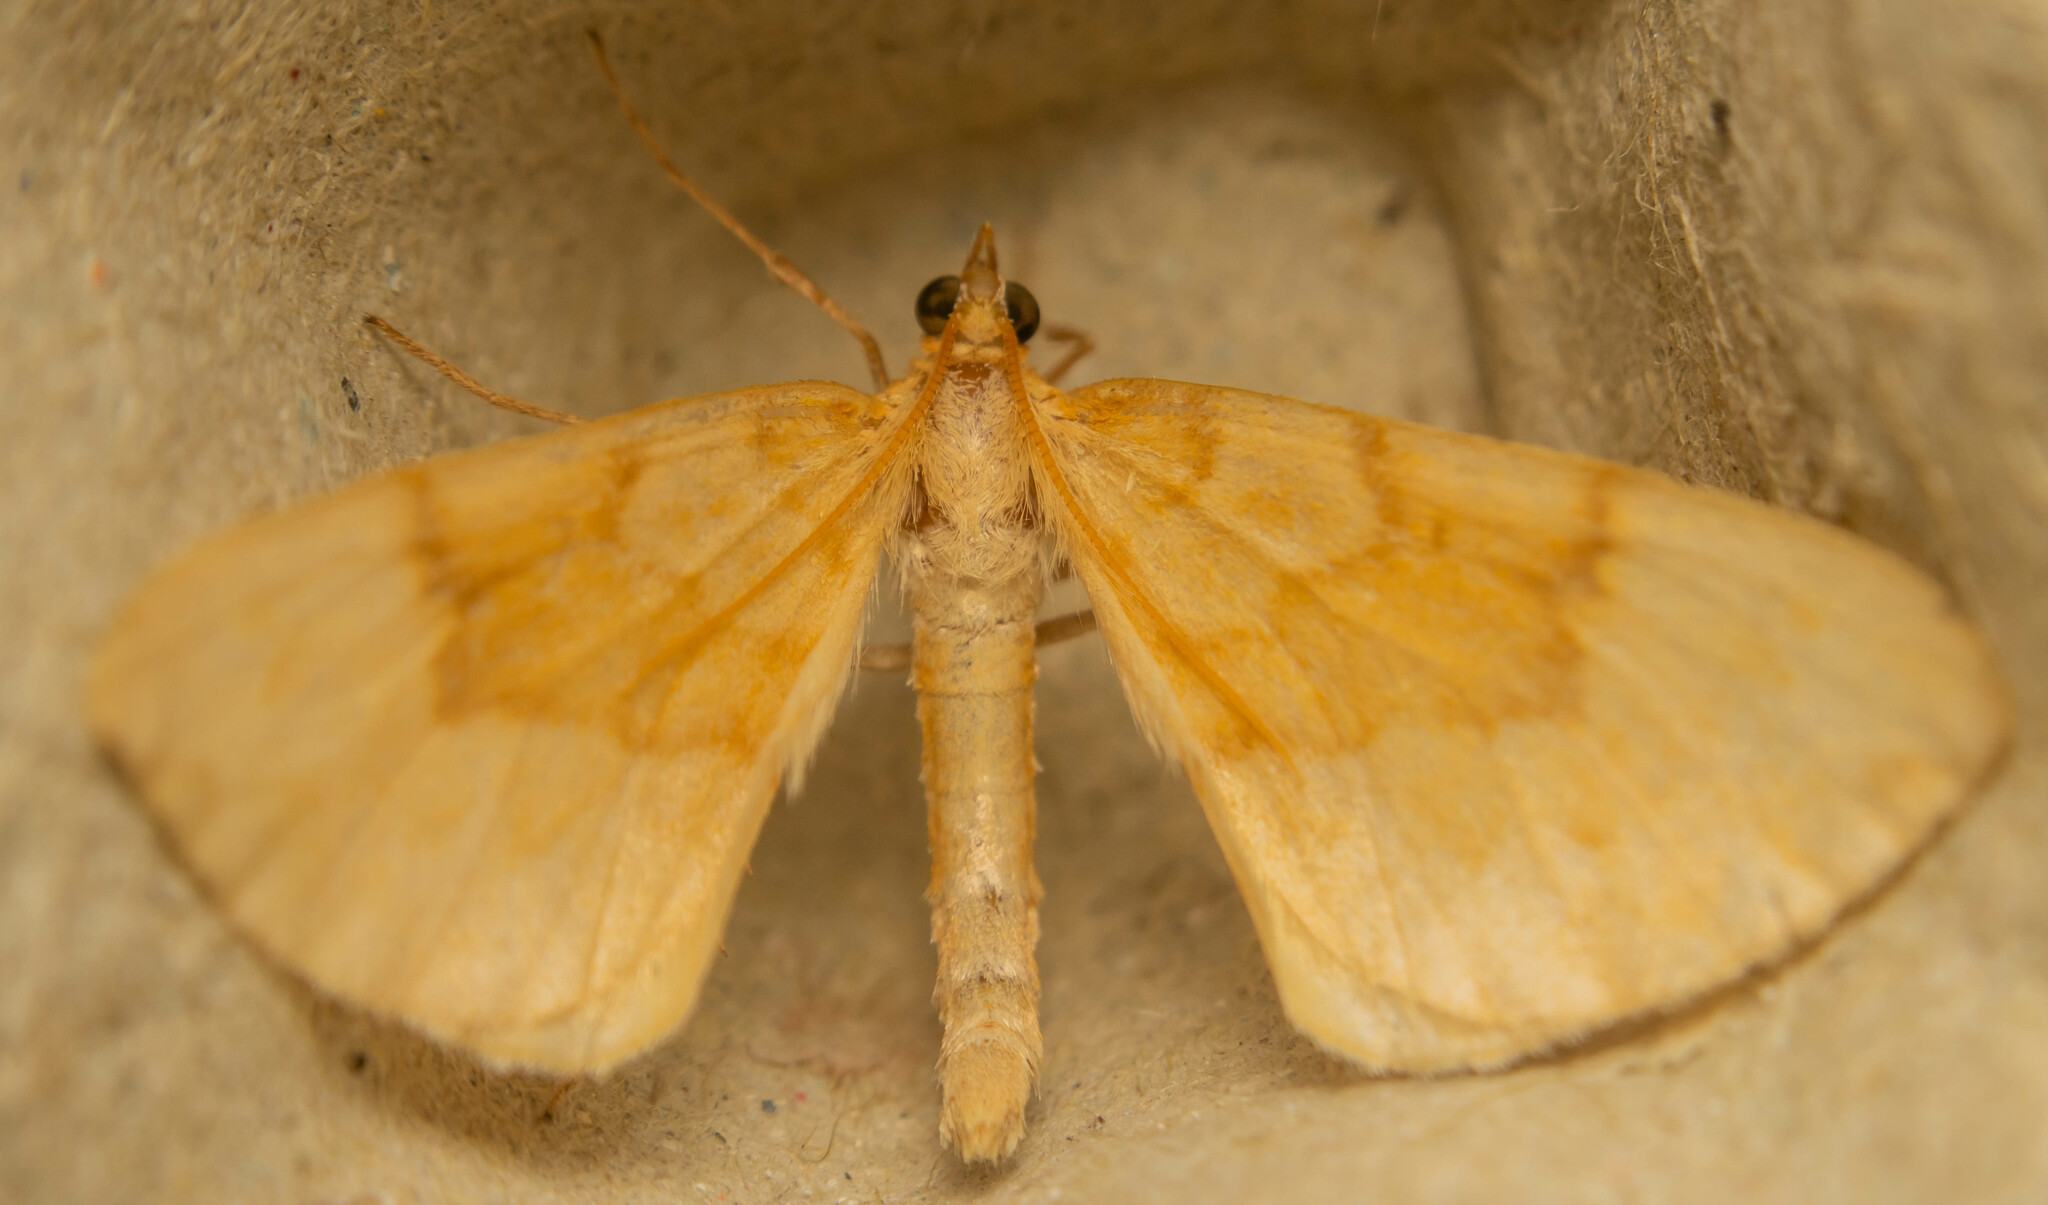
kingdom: Animalia
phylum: Arthropoda
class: Insecta
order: Lepidoptera
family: Geometridae
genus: Eulithis
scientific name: Eulithis pyraliata
